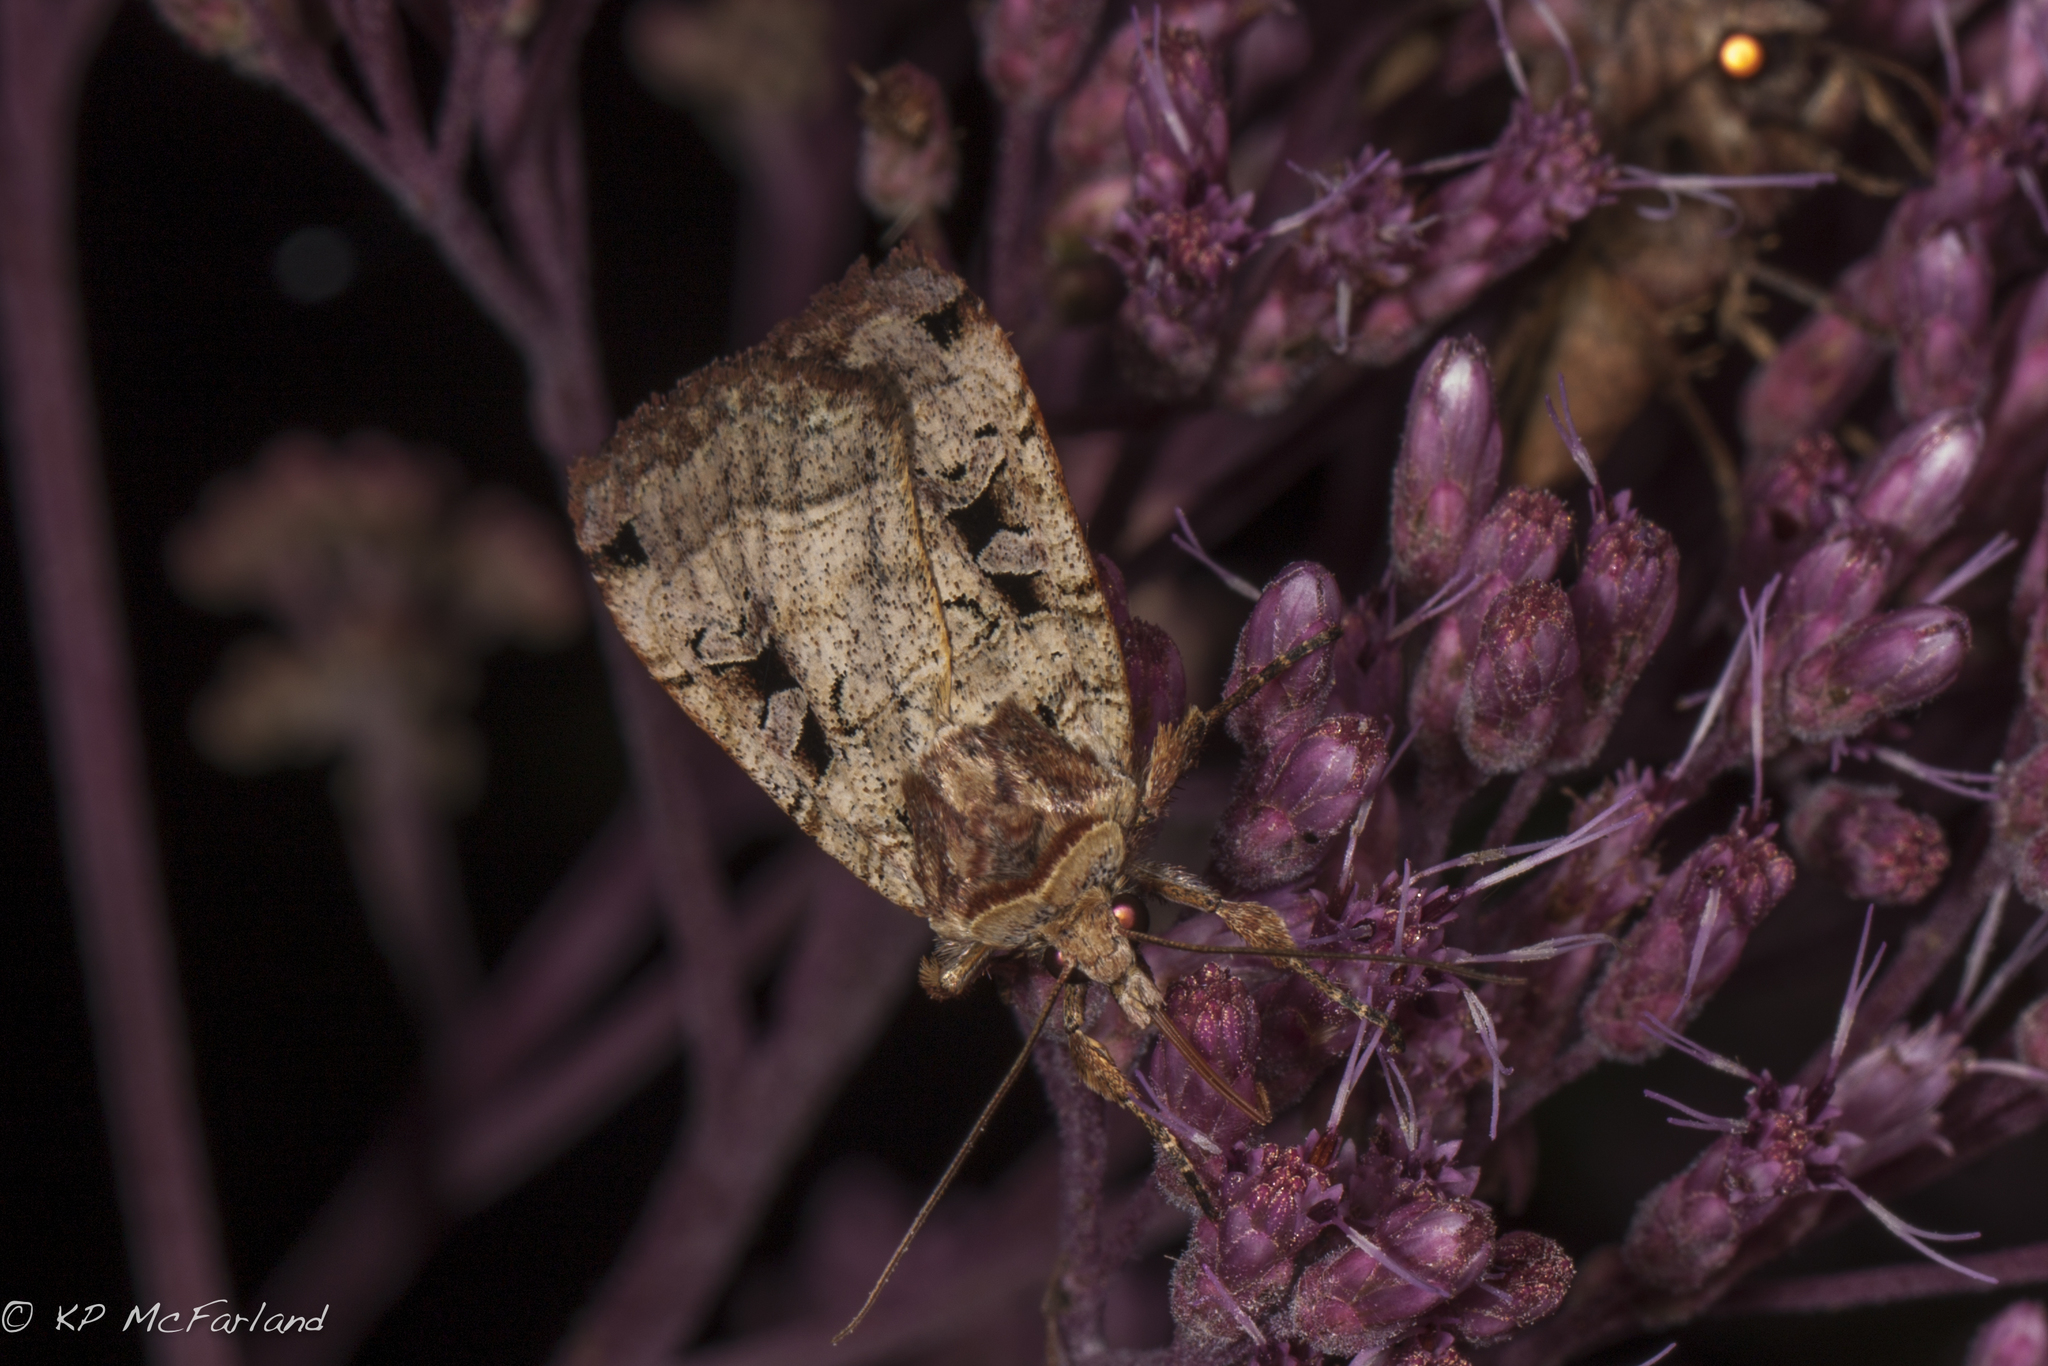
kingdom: Animalia
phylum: Arthropoda
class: Insecta
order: Lepidoptera
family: Noctuidae
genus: Xestia
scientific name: Xestia normaniana
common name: Norman's dart moth
